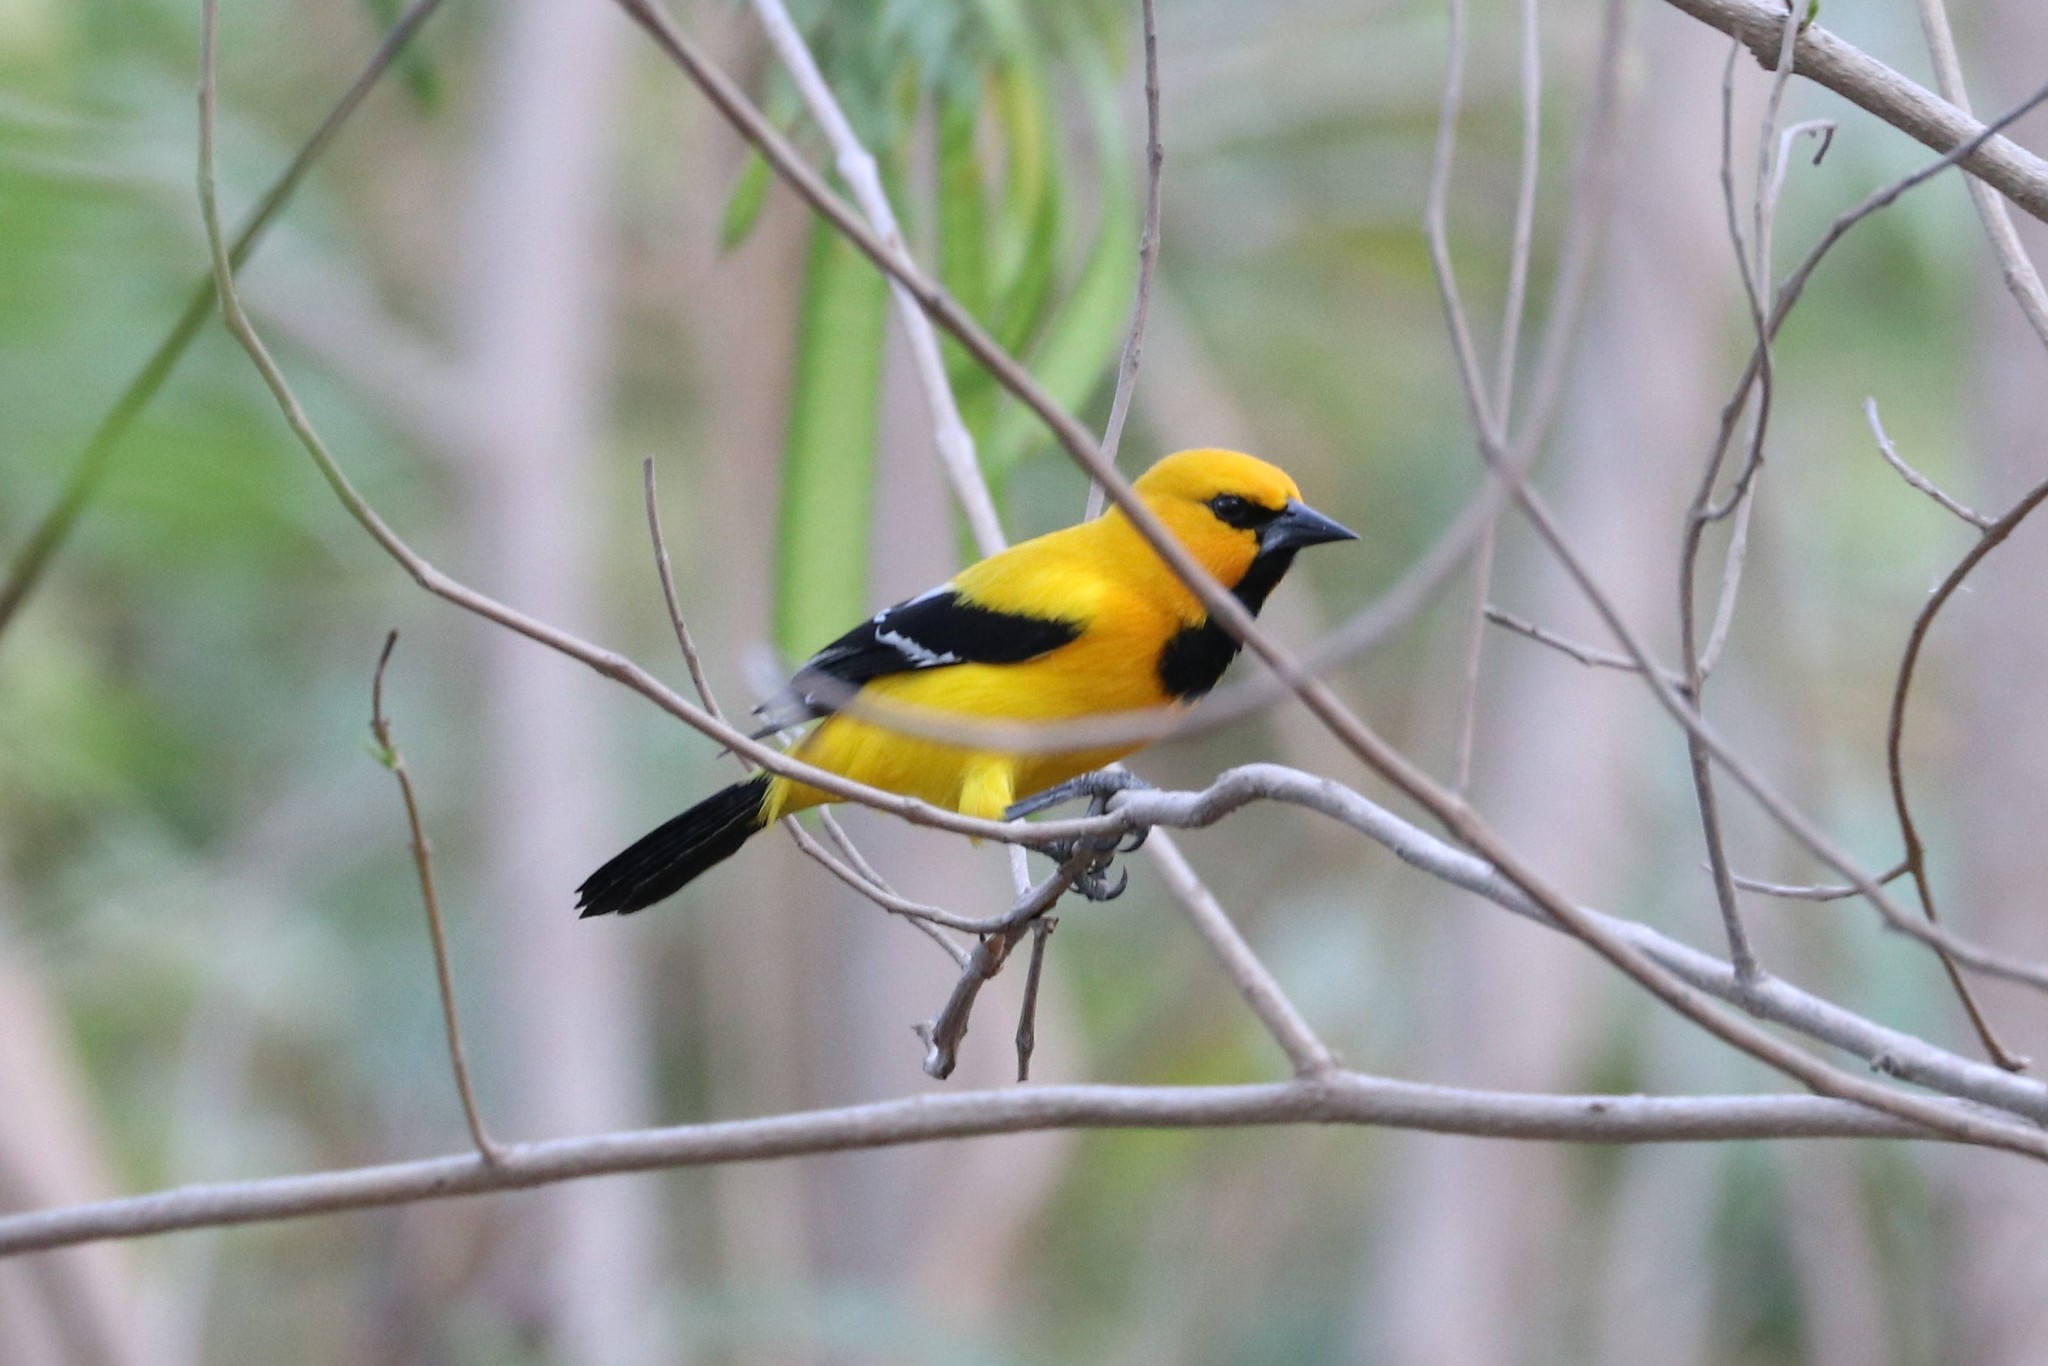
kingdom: Animalia
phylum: Chordata
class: Aves
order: Passeriformes
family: Icteridae
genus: Icterus
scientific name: Icterus nigrogularis
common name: Yellow oriole
